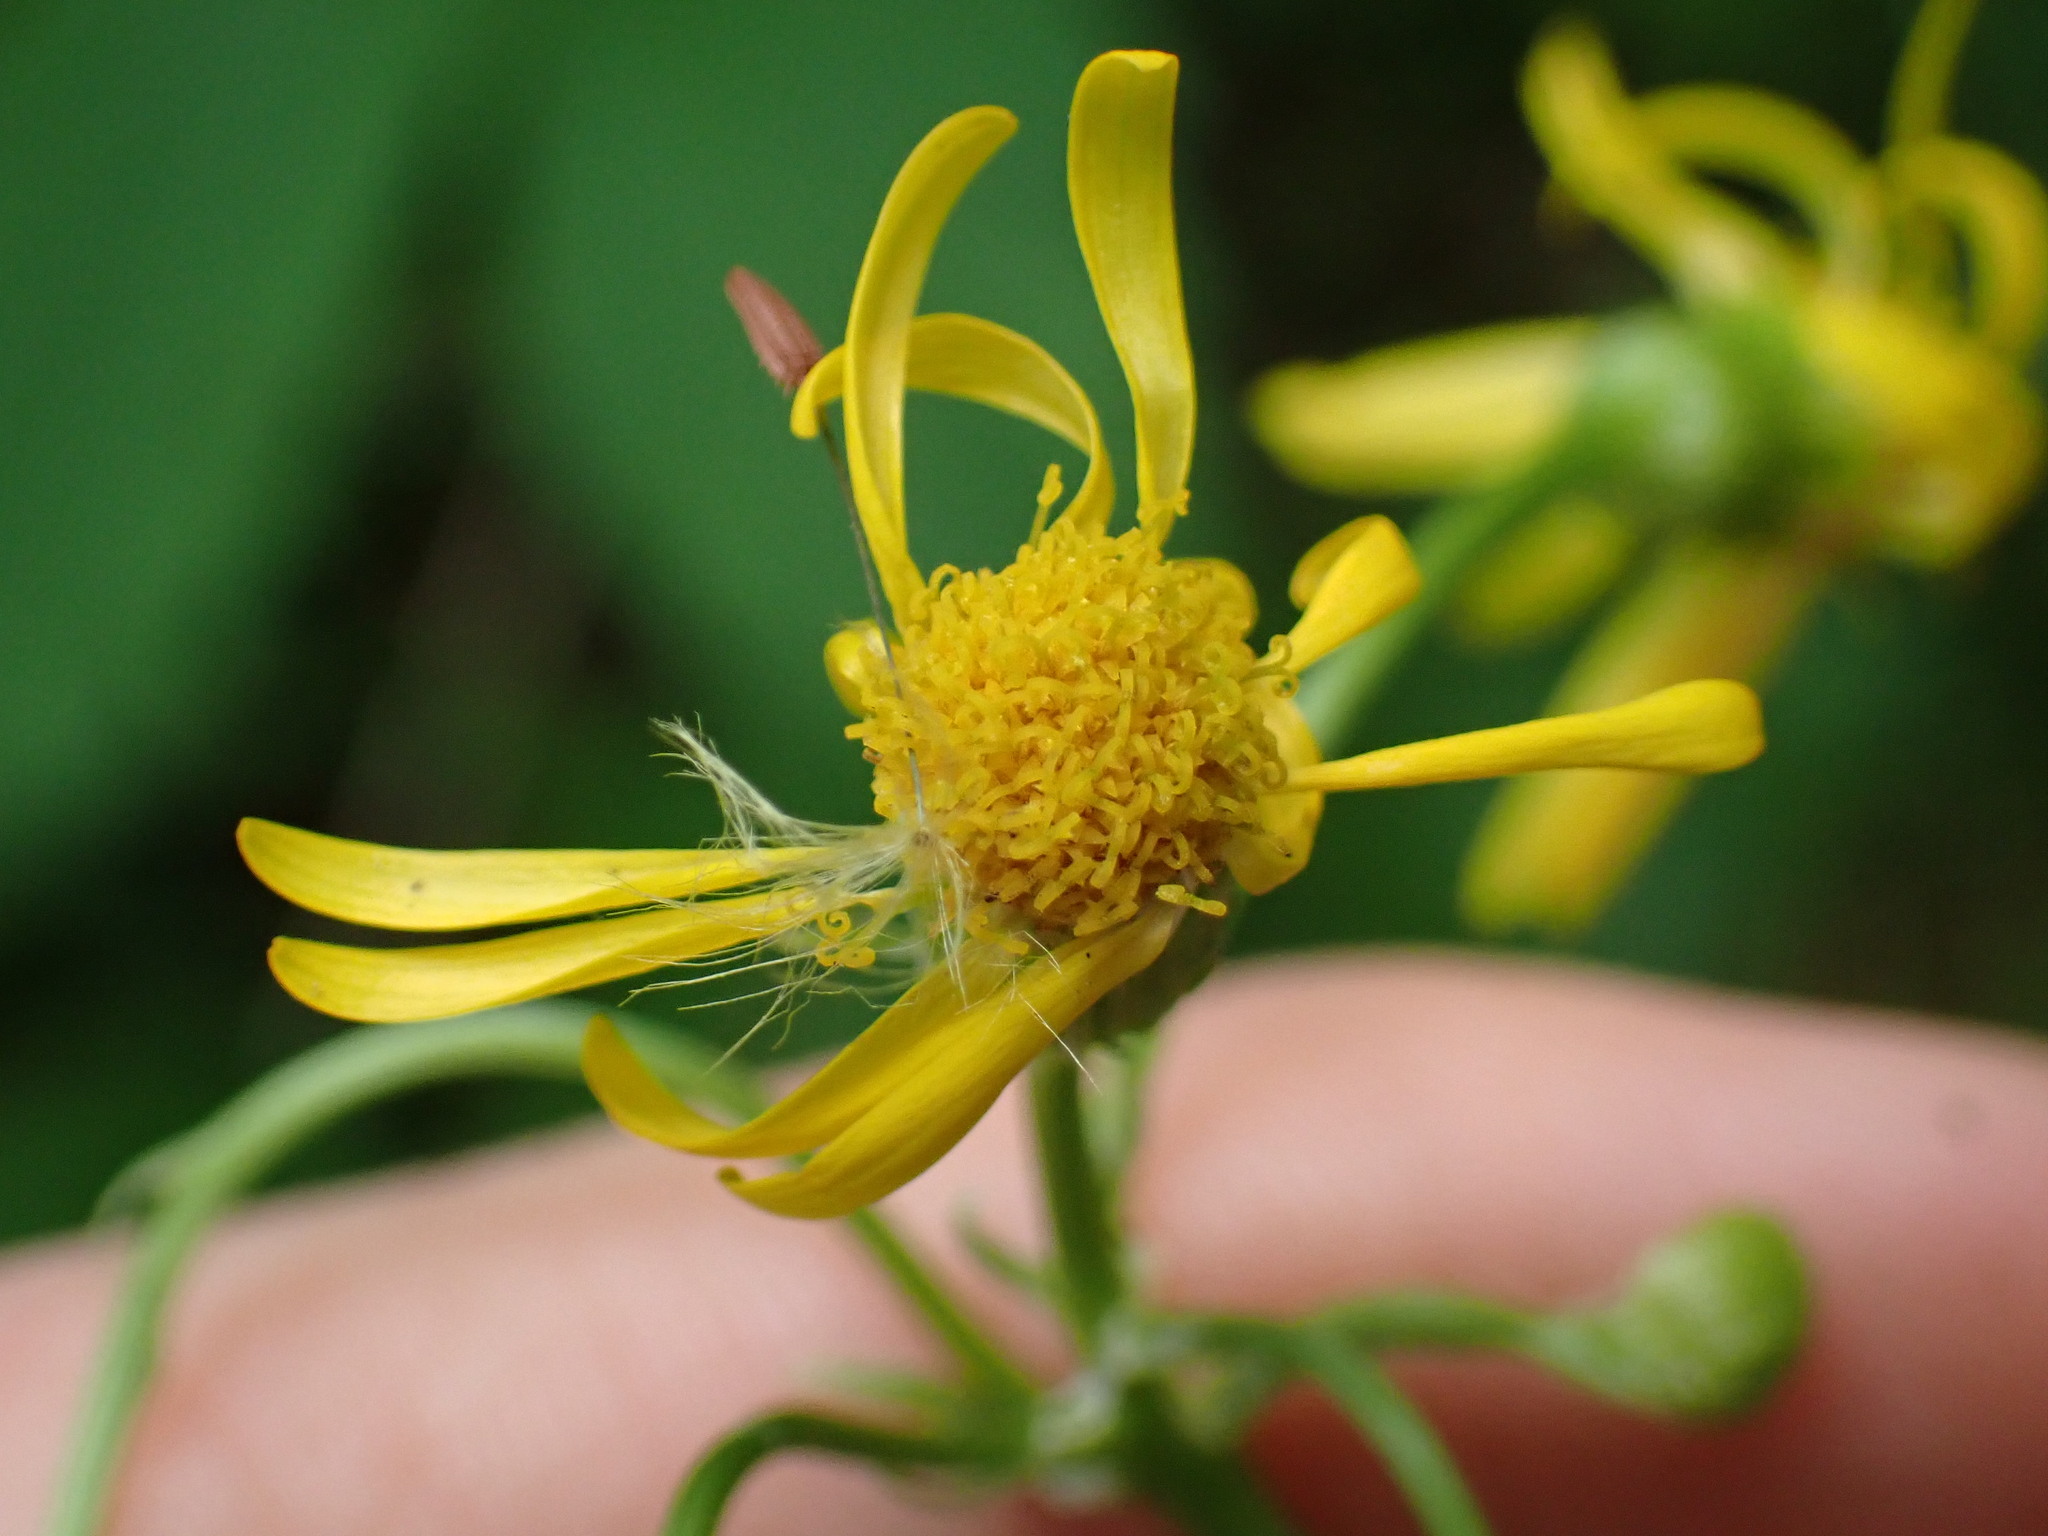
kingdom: Plantae
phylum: Tracheophyta
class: Magnoliopsida
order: Asterales
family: Asteraceae
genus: Packera
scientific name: Packera paupercula
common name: Balsam groundsel
